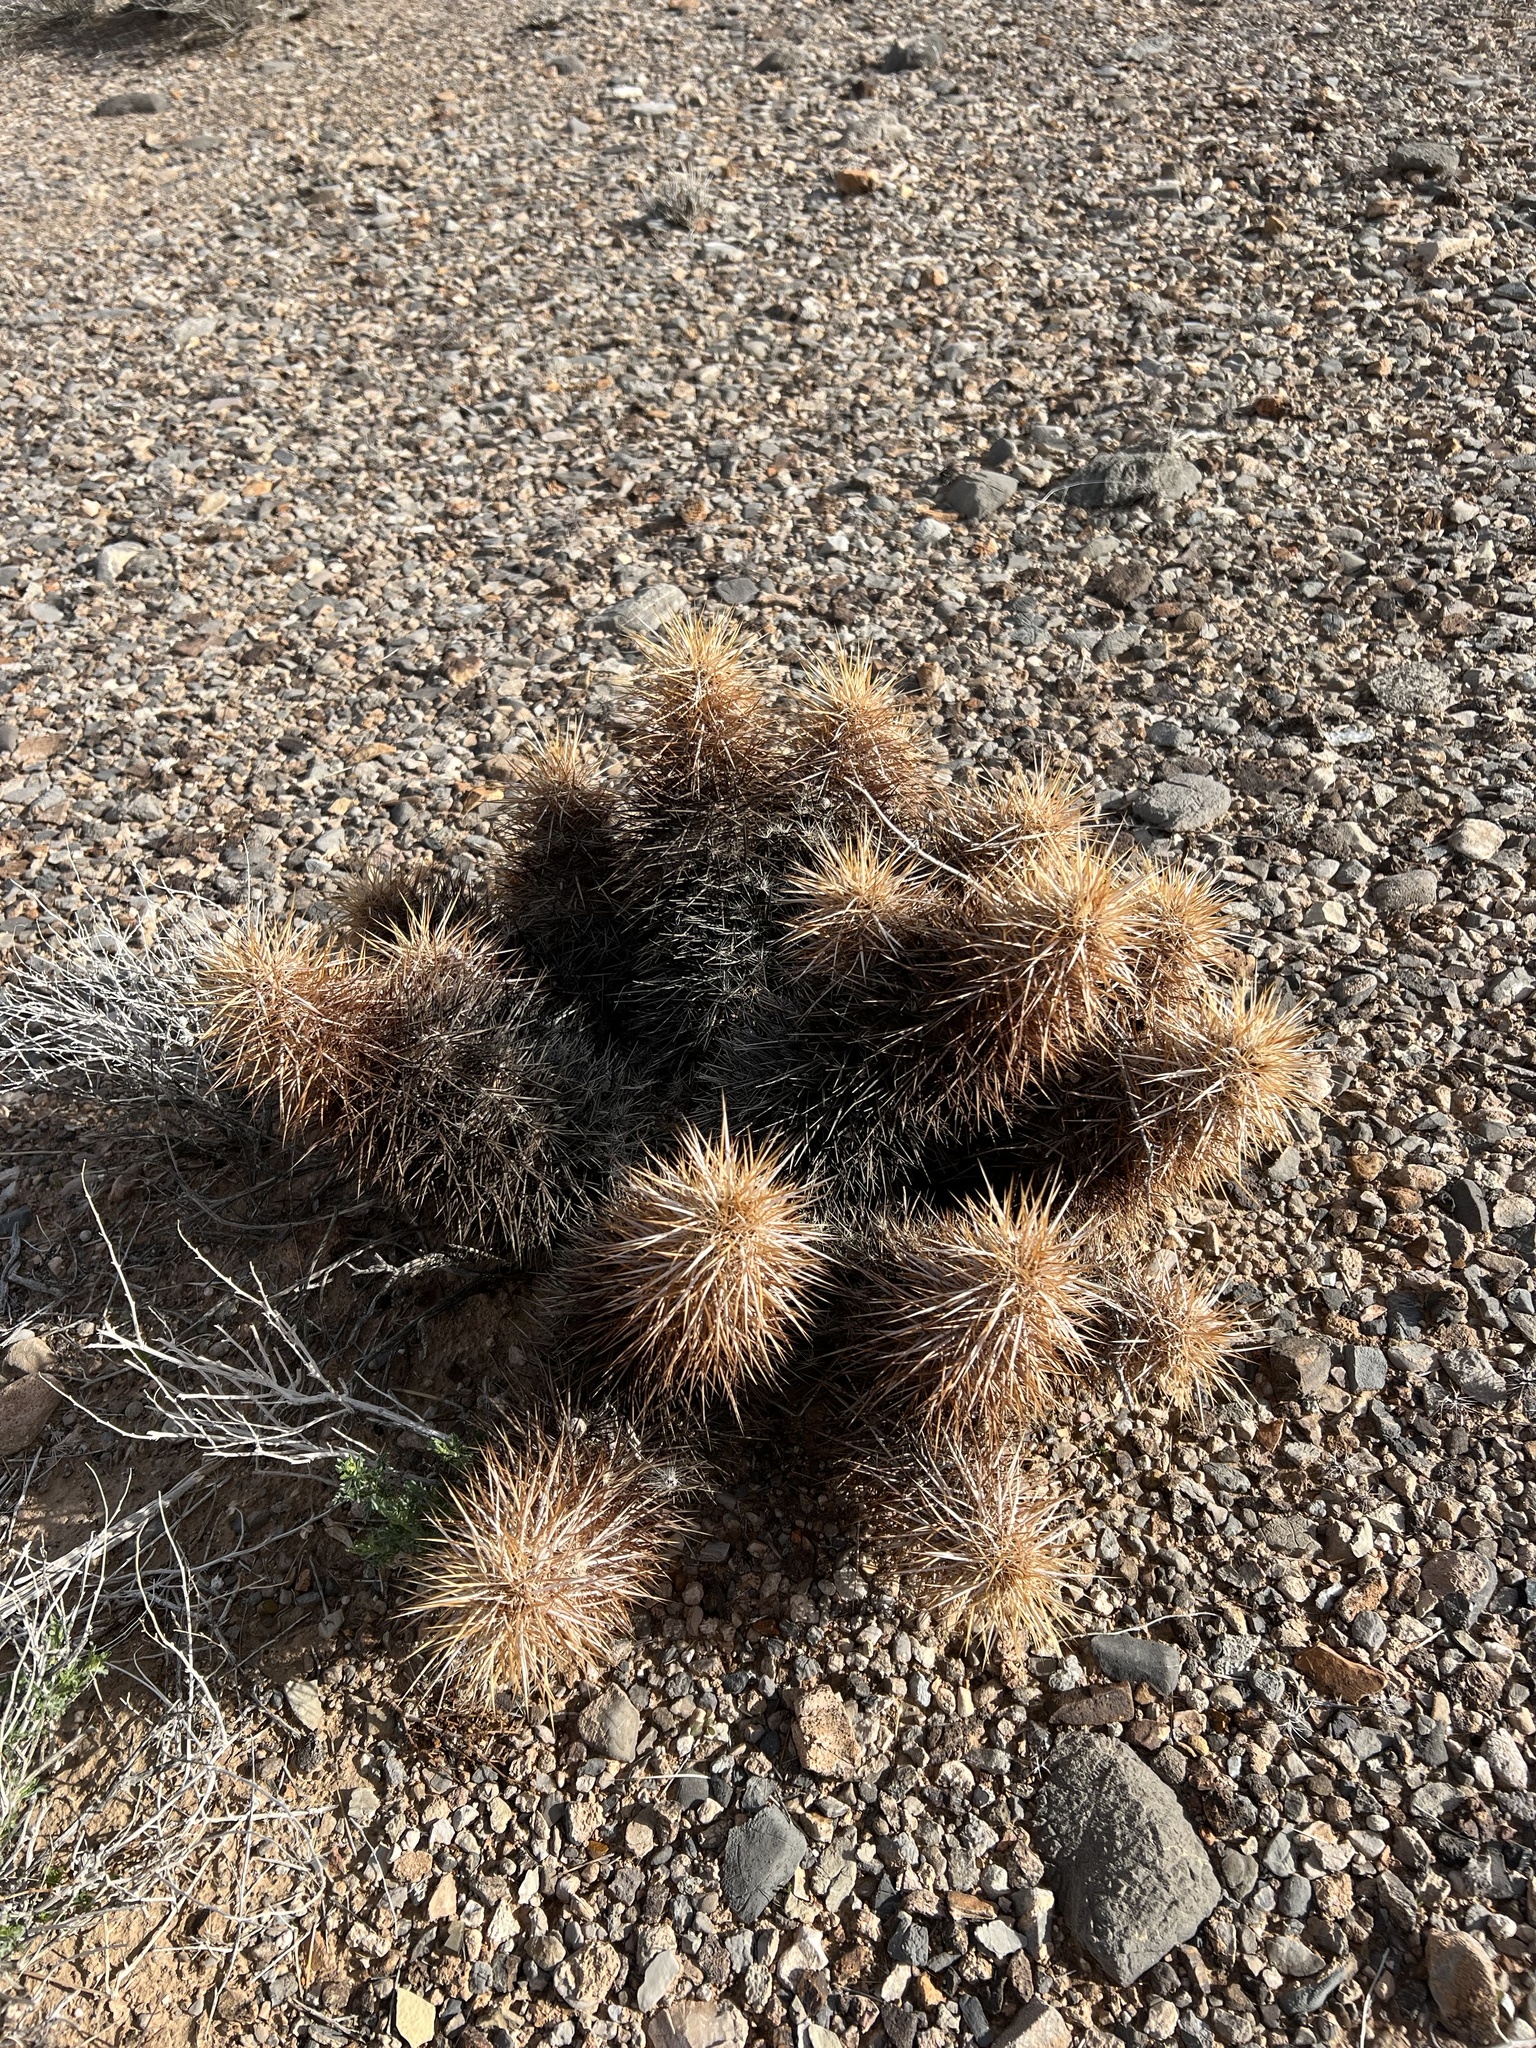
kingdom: Plantae
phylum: Tracheophyta
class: Magnoliopsida
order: Caryophyllales
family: Cactaceae
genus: Echinocereus
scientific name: Echinocereus engelmannii
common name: Engelmann's hedgehog cactus
